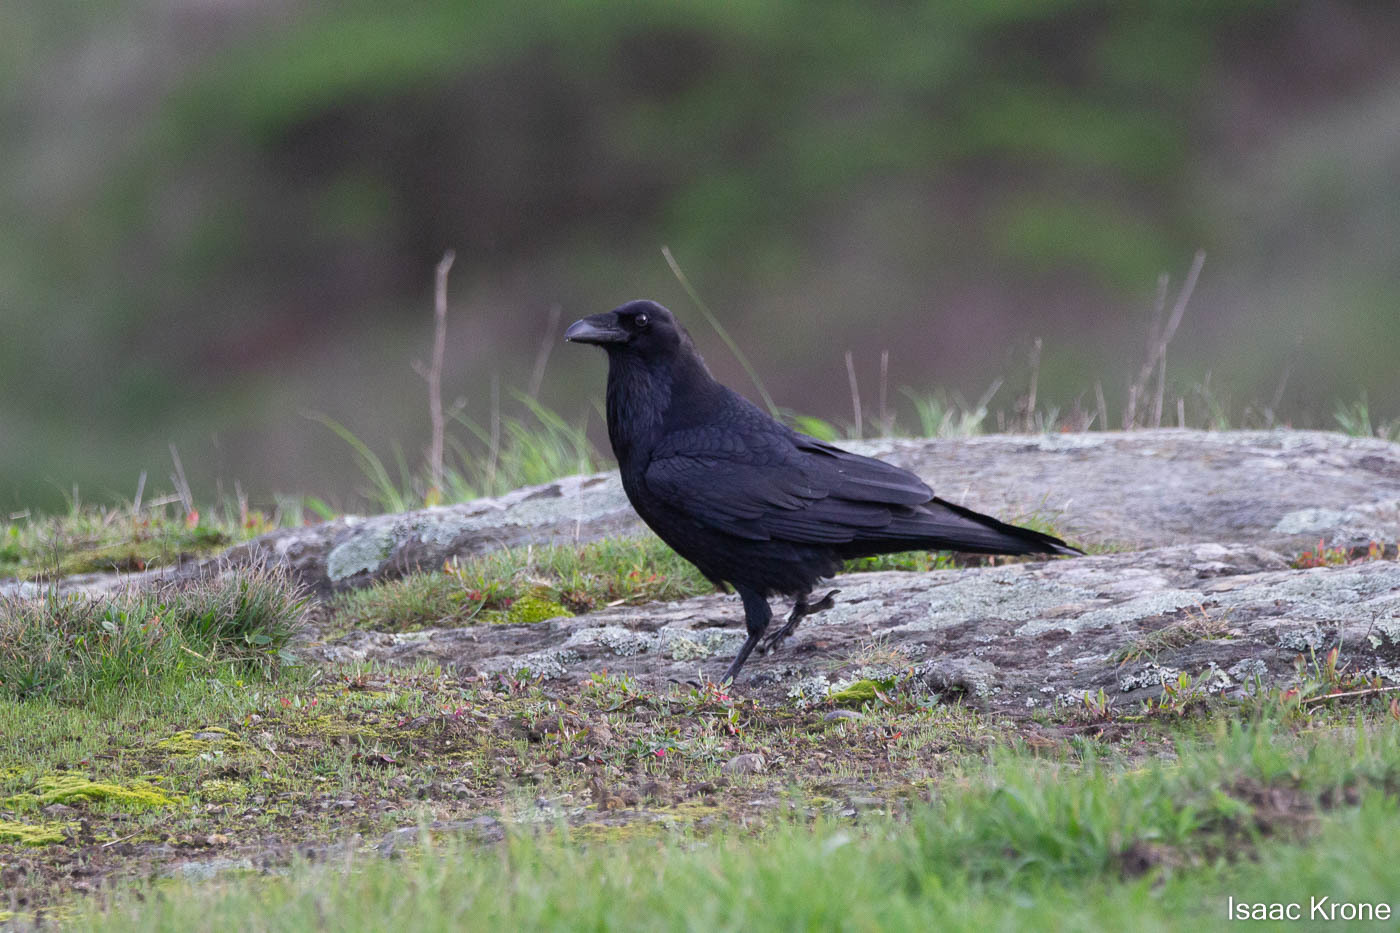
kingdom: Animalia
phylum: Chordata
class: Aves
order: Passeriformes
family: Corvidae
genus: Corvus
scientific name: Corvus brachyrhynchos
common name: American crow
